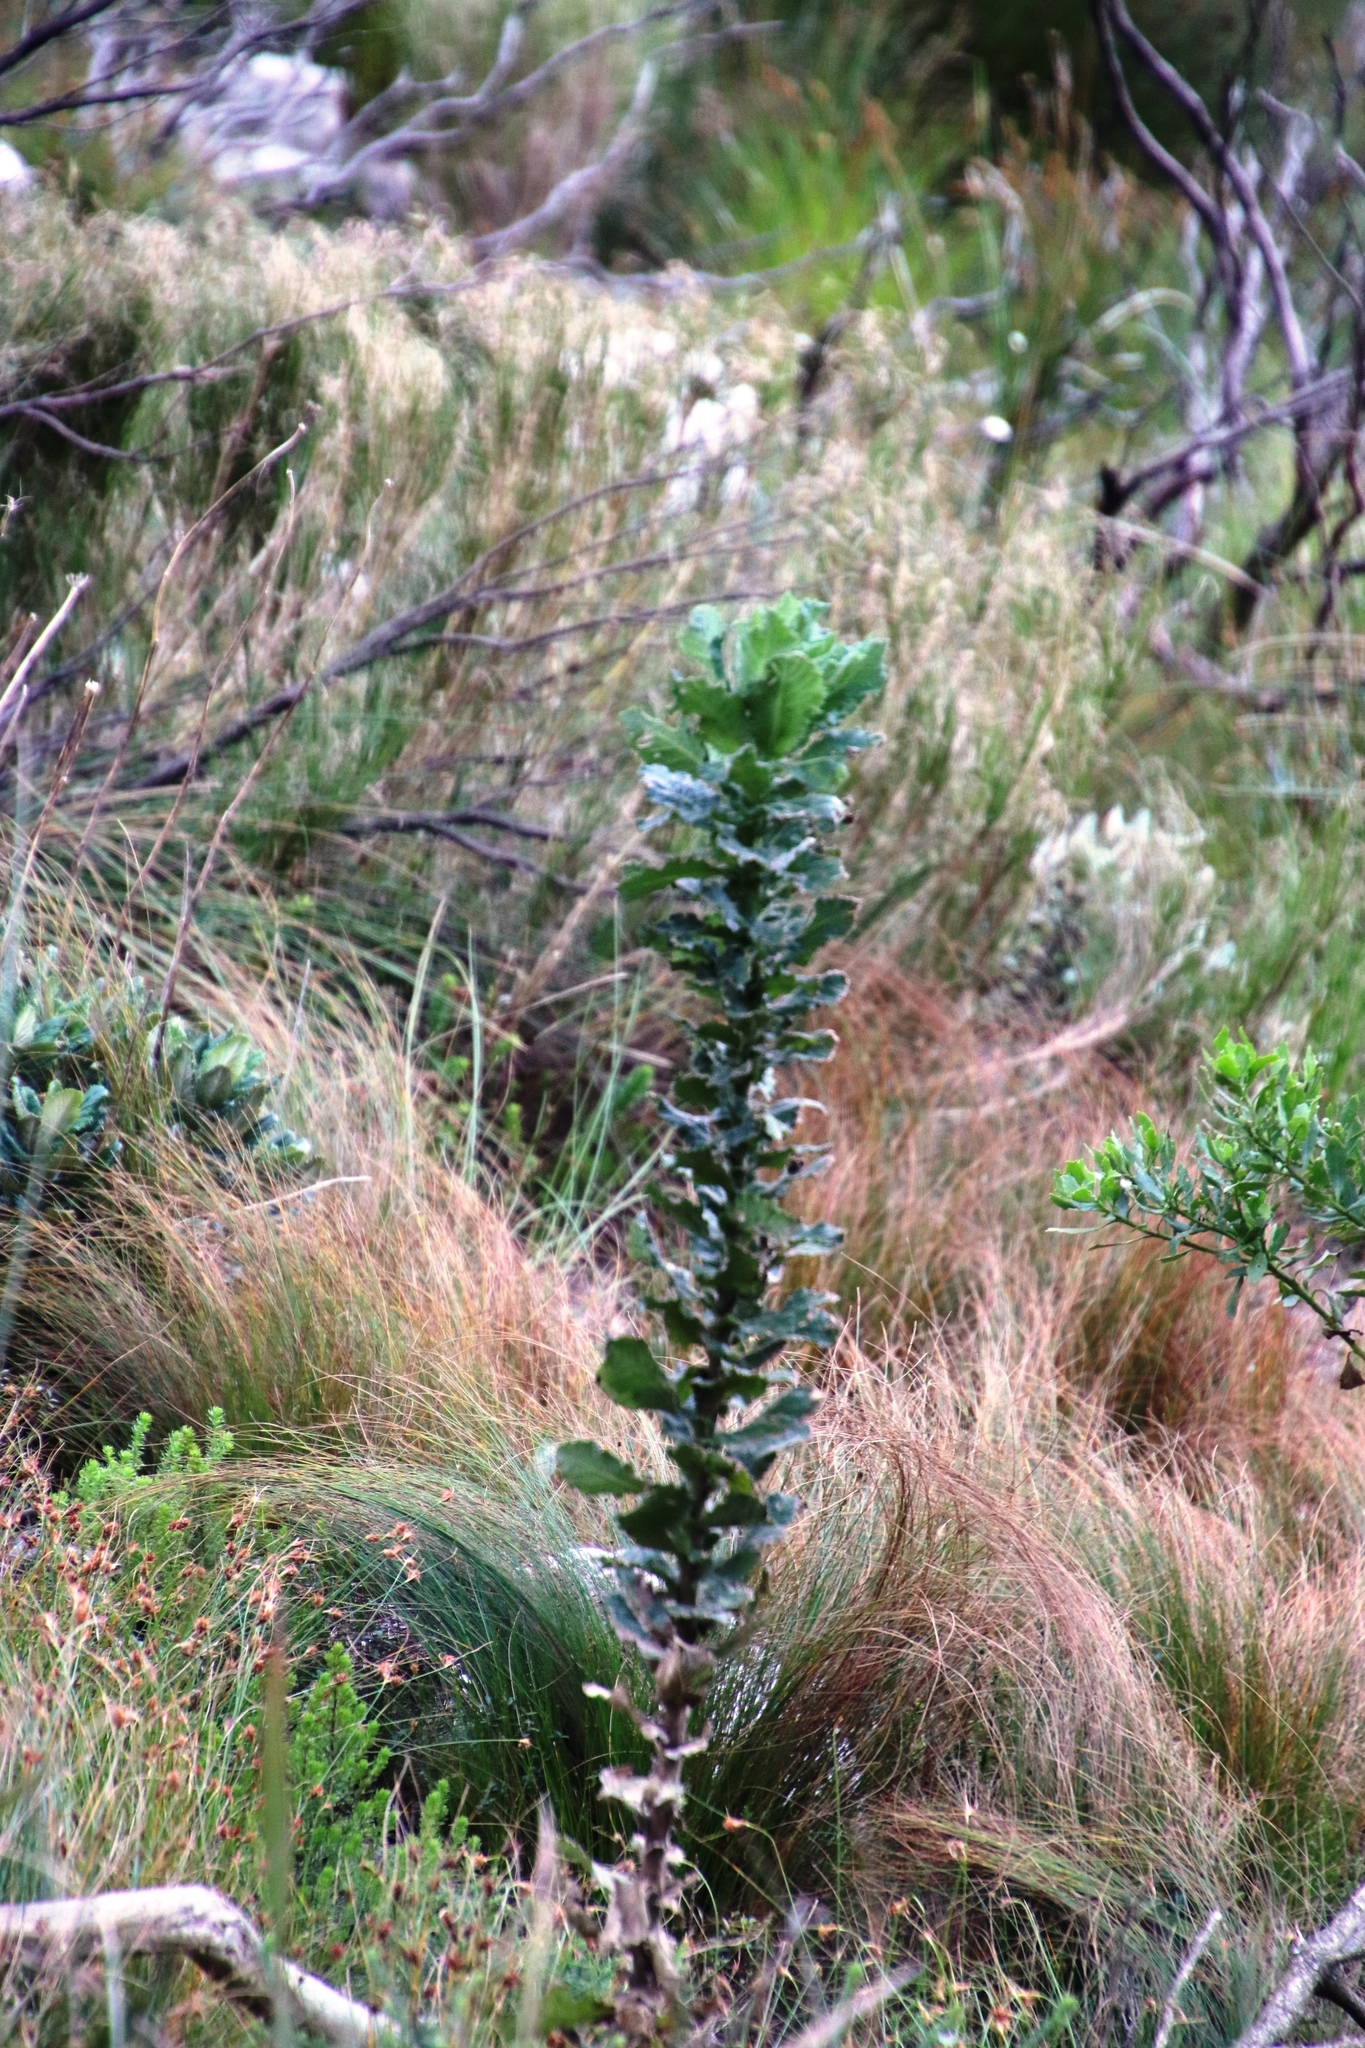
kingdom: Plantae
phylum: Tracheophyta
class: Magnoliopsida
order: Asterales
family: Asteraceae
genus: Senecio
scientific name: Senecio rigidus
